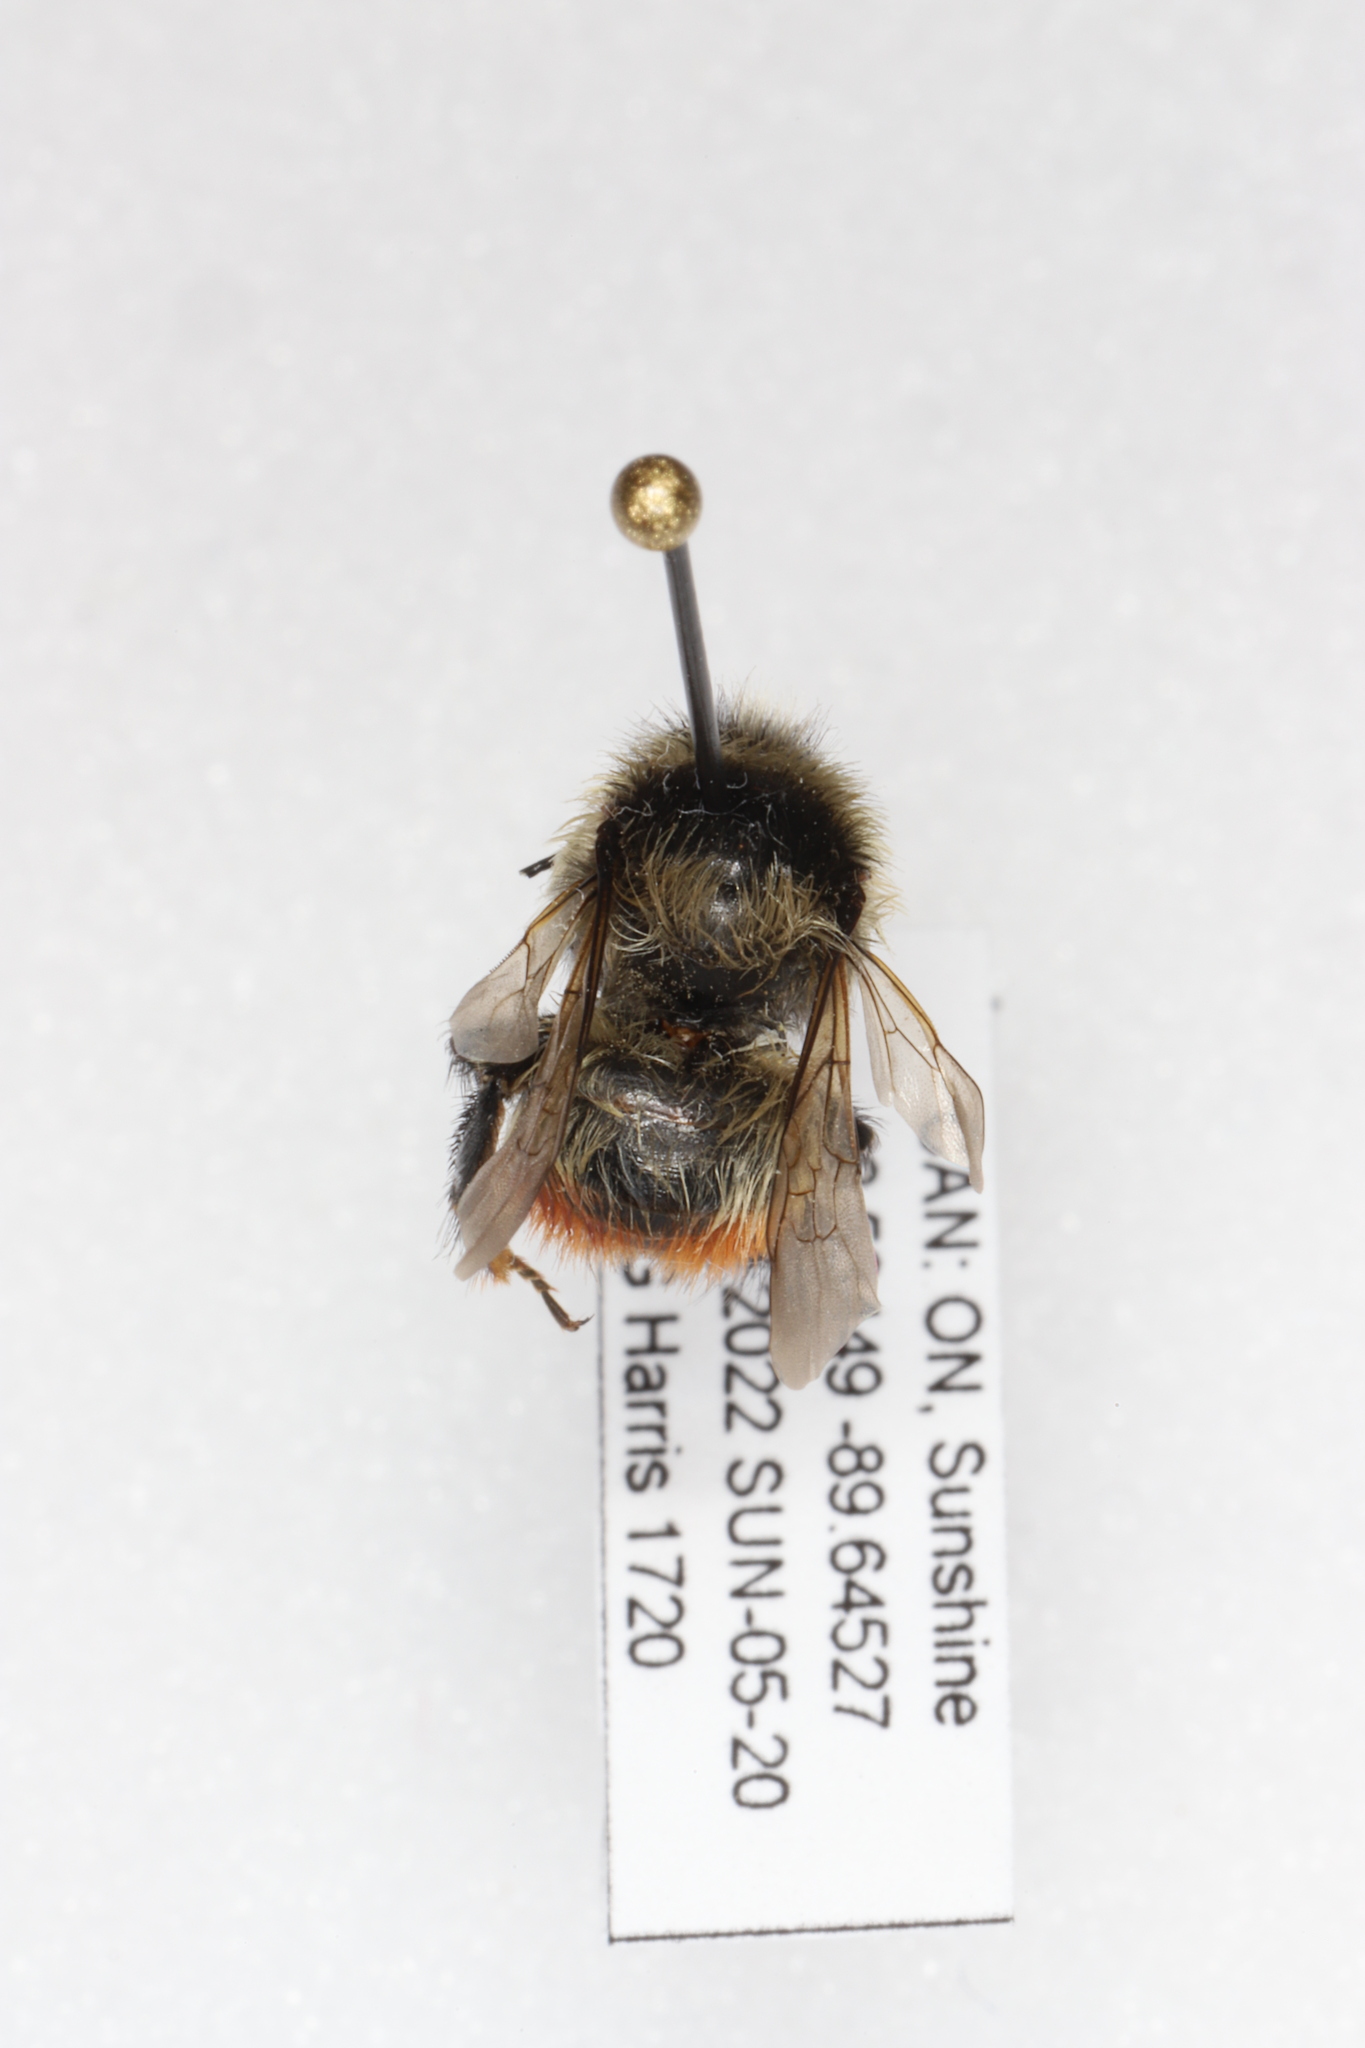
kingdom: Animalia
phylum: Arthropoda
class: Insecta
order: Hymenoptera
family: Apidae
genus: Bombus
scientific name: Bombus rufocinctus
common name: Red-belted bumble bee
